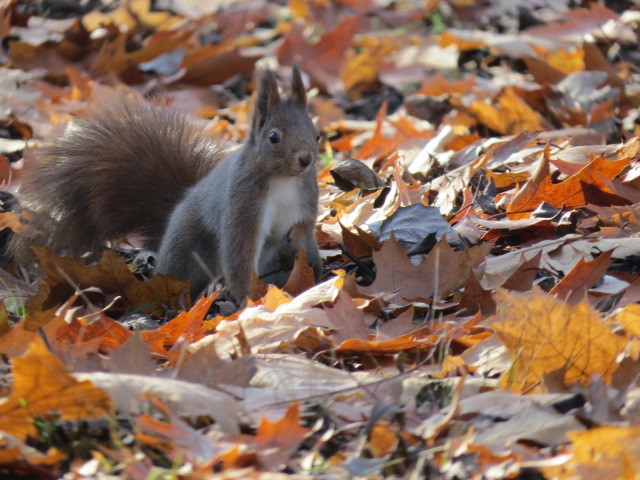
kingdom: Animalia
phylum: Chordata
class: Mammalia
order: Rodentia
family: Sciuridae
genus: Sciurus
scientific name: Sciurus vulgaris
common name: Eurasian red squirrel
